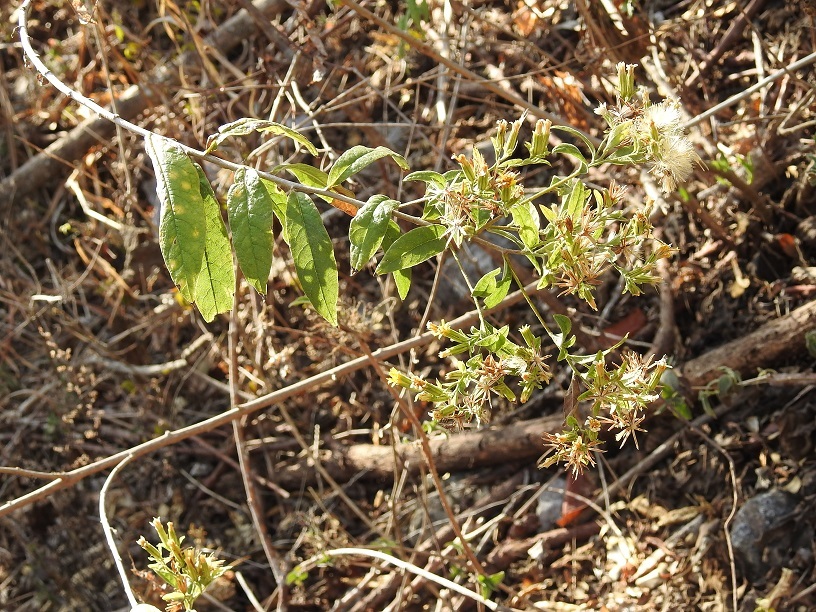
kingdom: Plantae
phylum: Tracheophyta
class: Magnoliopsida
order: Asterales
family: Asteraceae
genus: Trixis
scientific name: Trixis inula
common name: Tropical threefold
